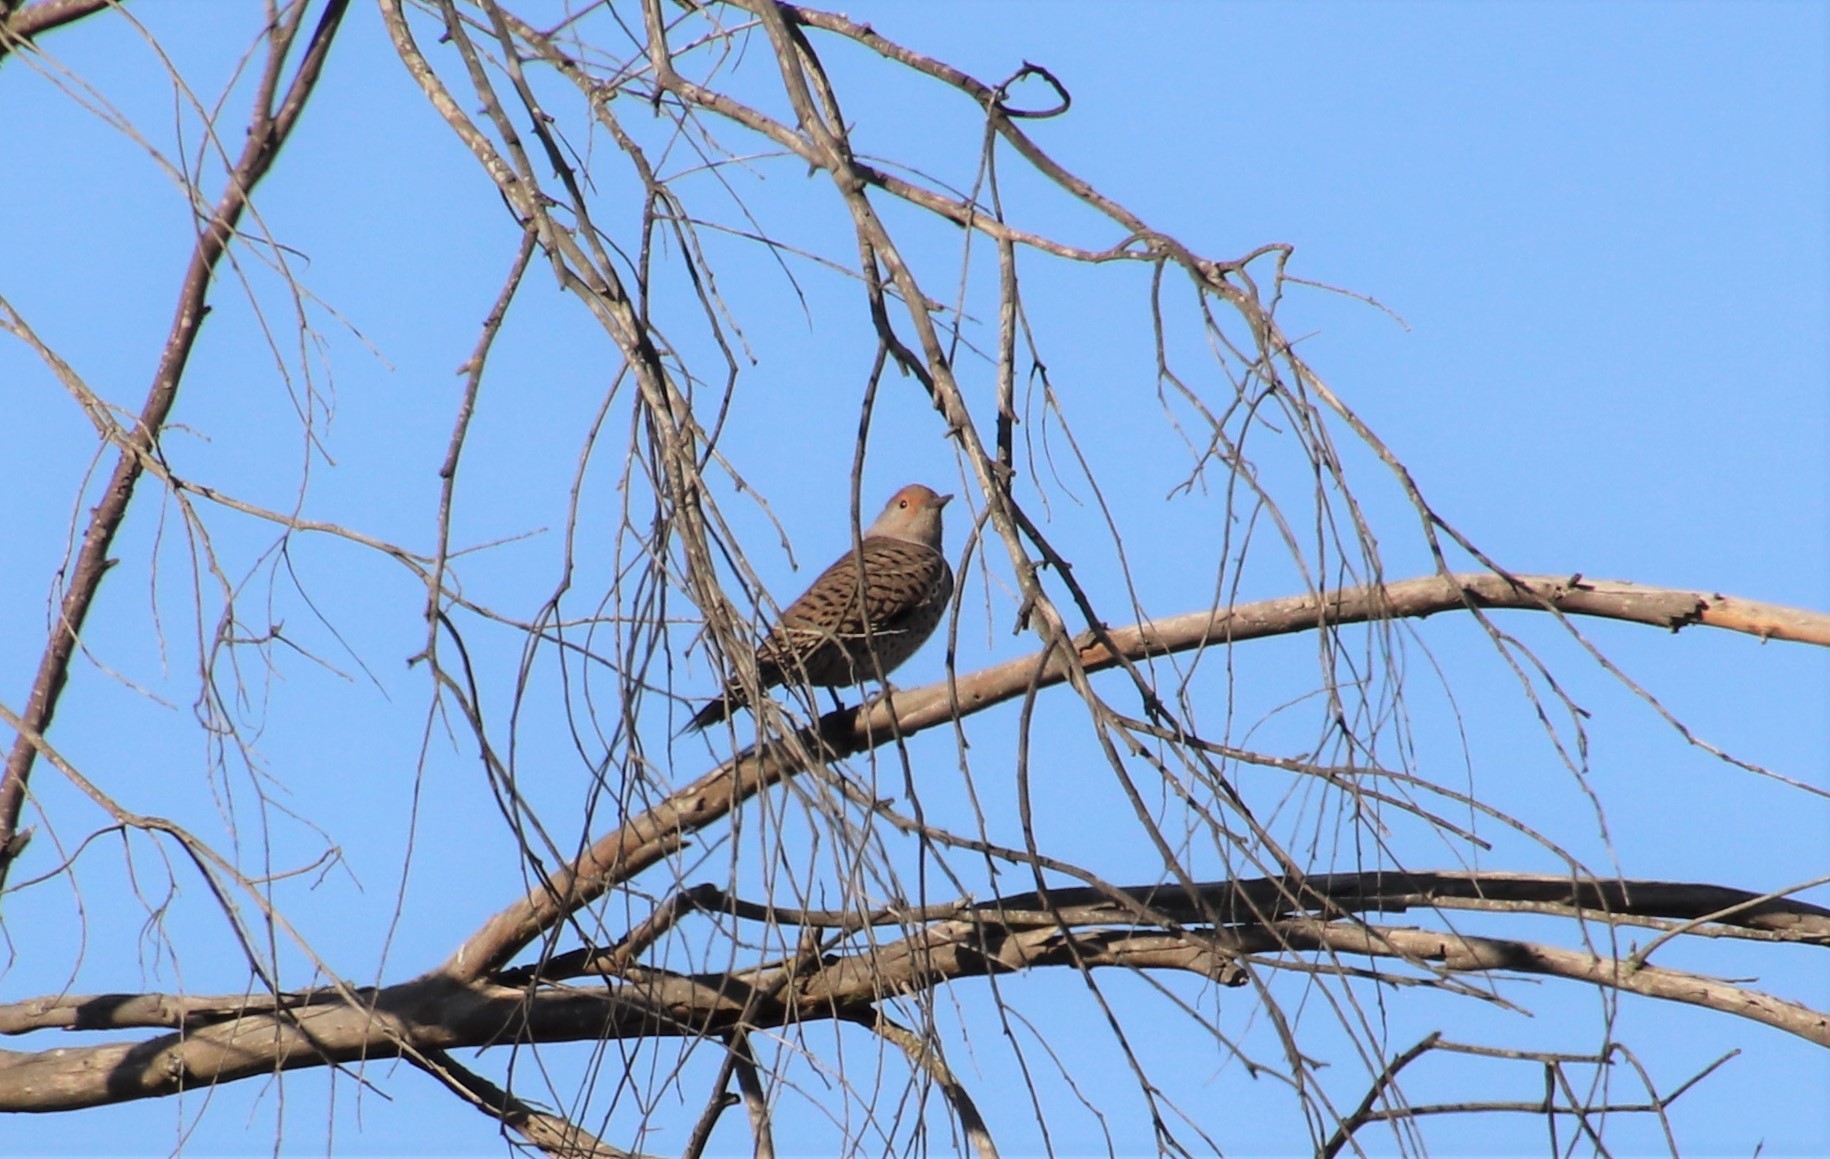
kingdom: Animalia
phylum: Chordata
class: Aves
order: Piciformes
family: Picidae
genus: Colaptes
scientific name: Colaptes auratus
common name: Northern flicker
